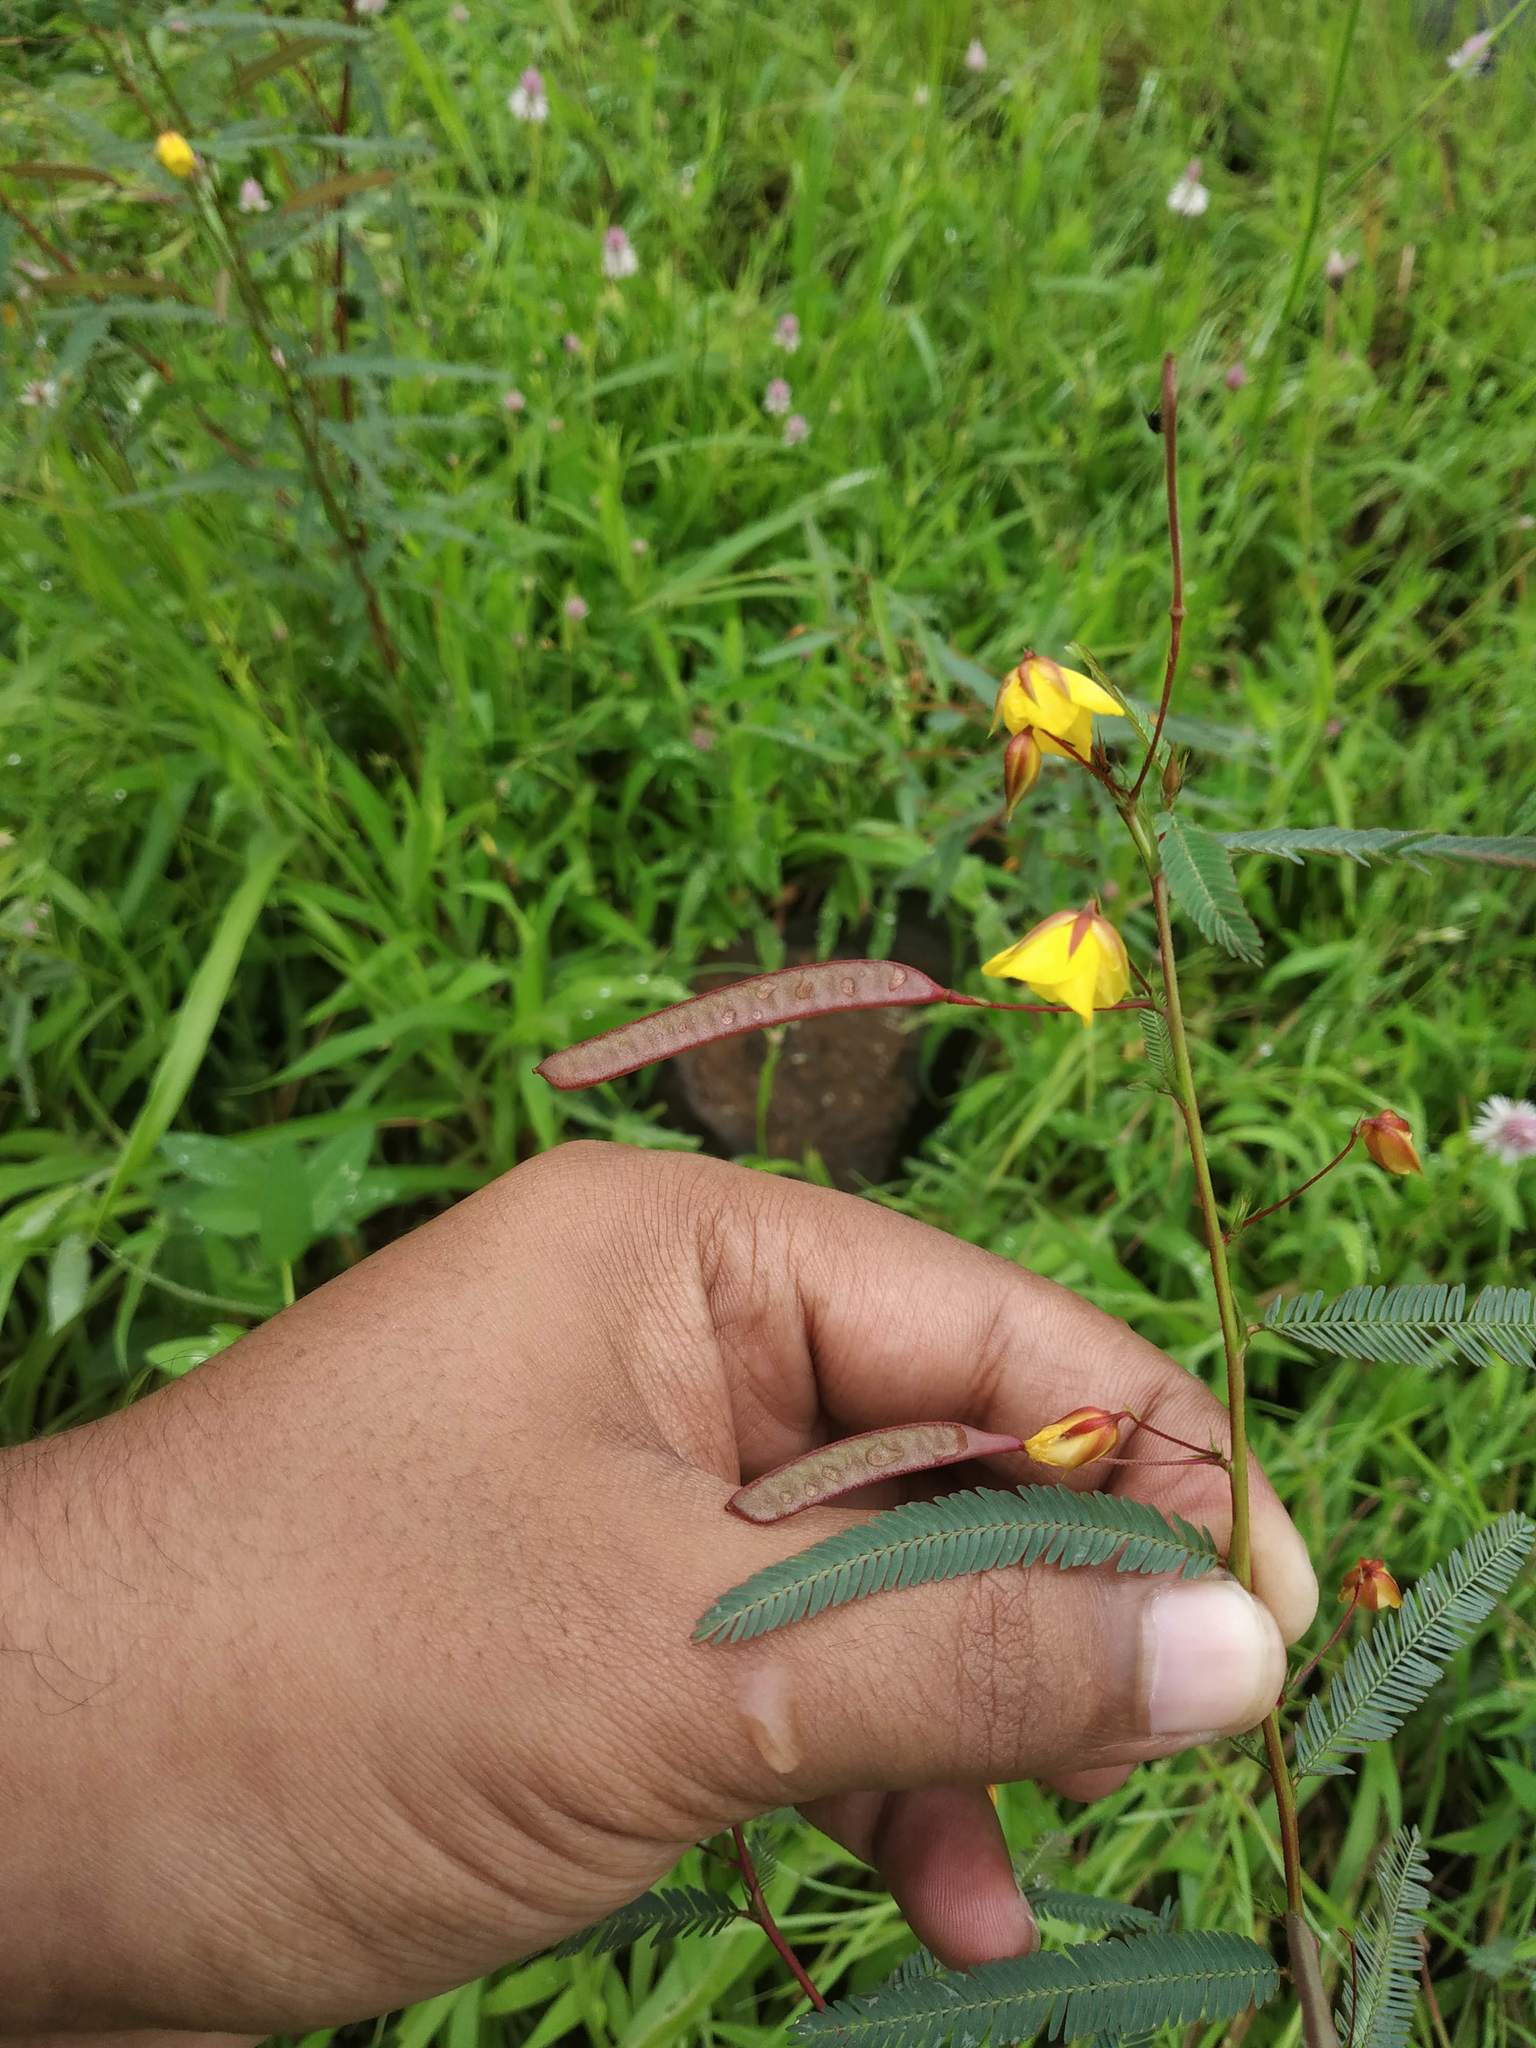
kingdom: Plantae
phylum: Tracheophyta
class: Magnoliopsida
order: Fabales
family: Fabaceae
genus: Chamaecrista
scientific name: Chamaecrista mimosoides
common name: Fish-bone cassia
